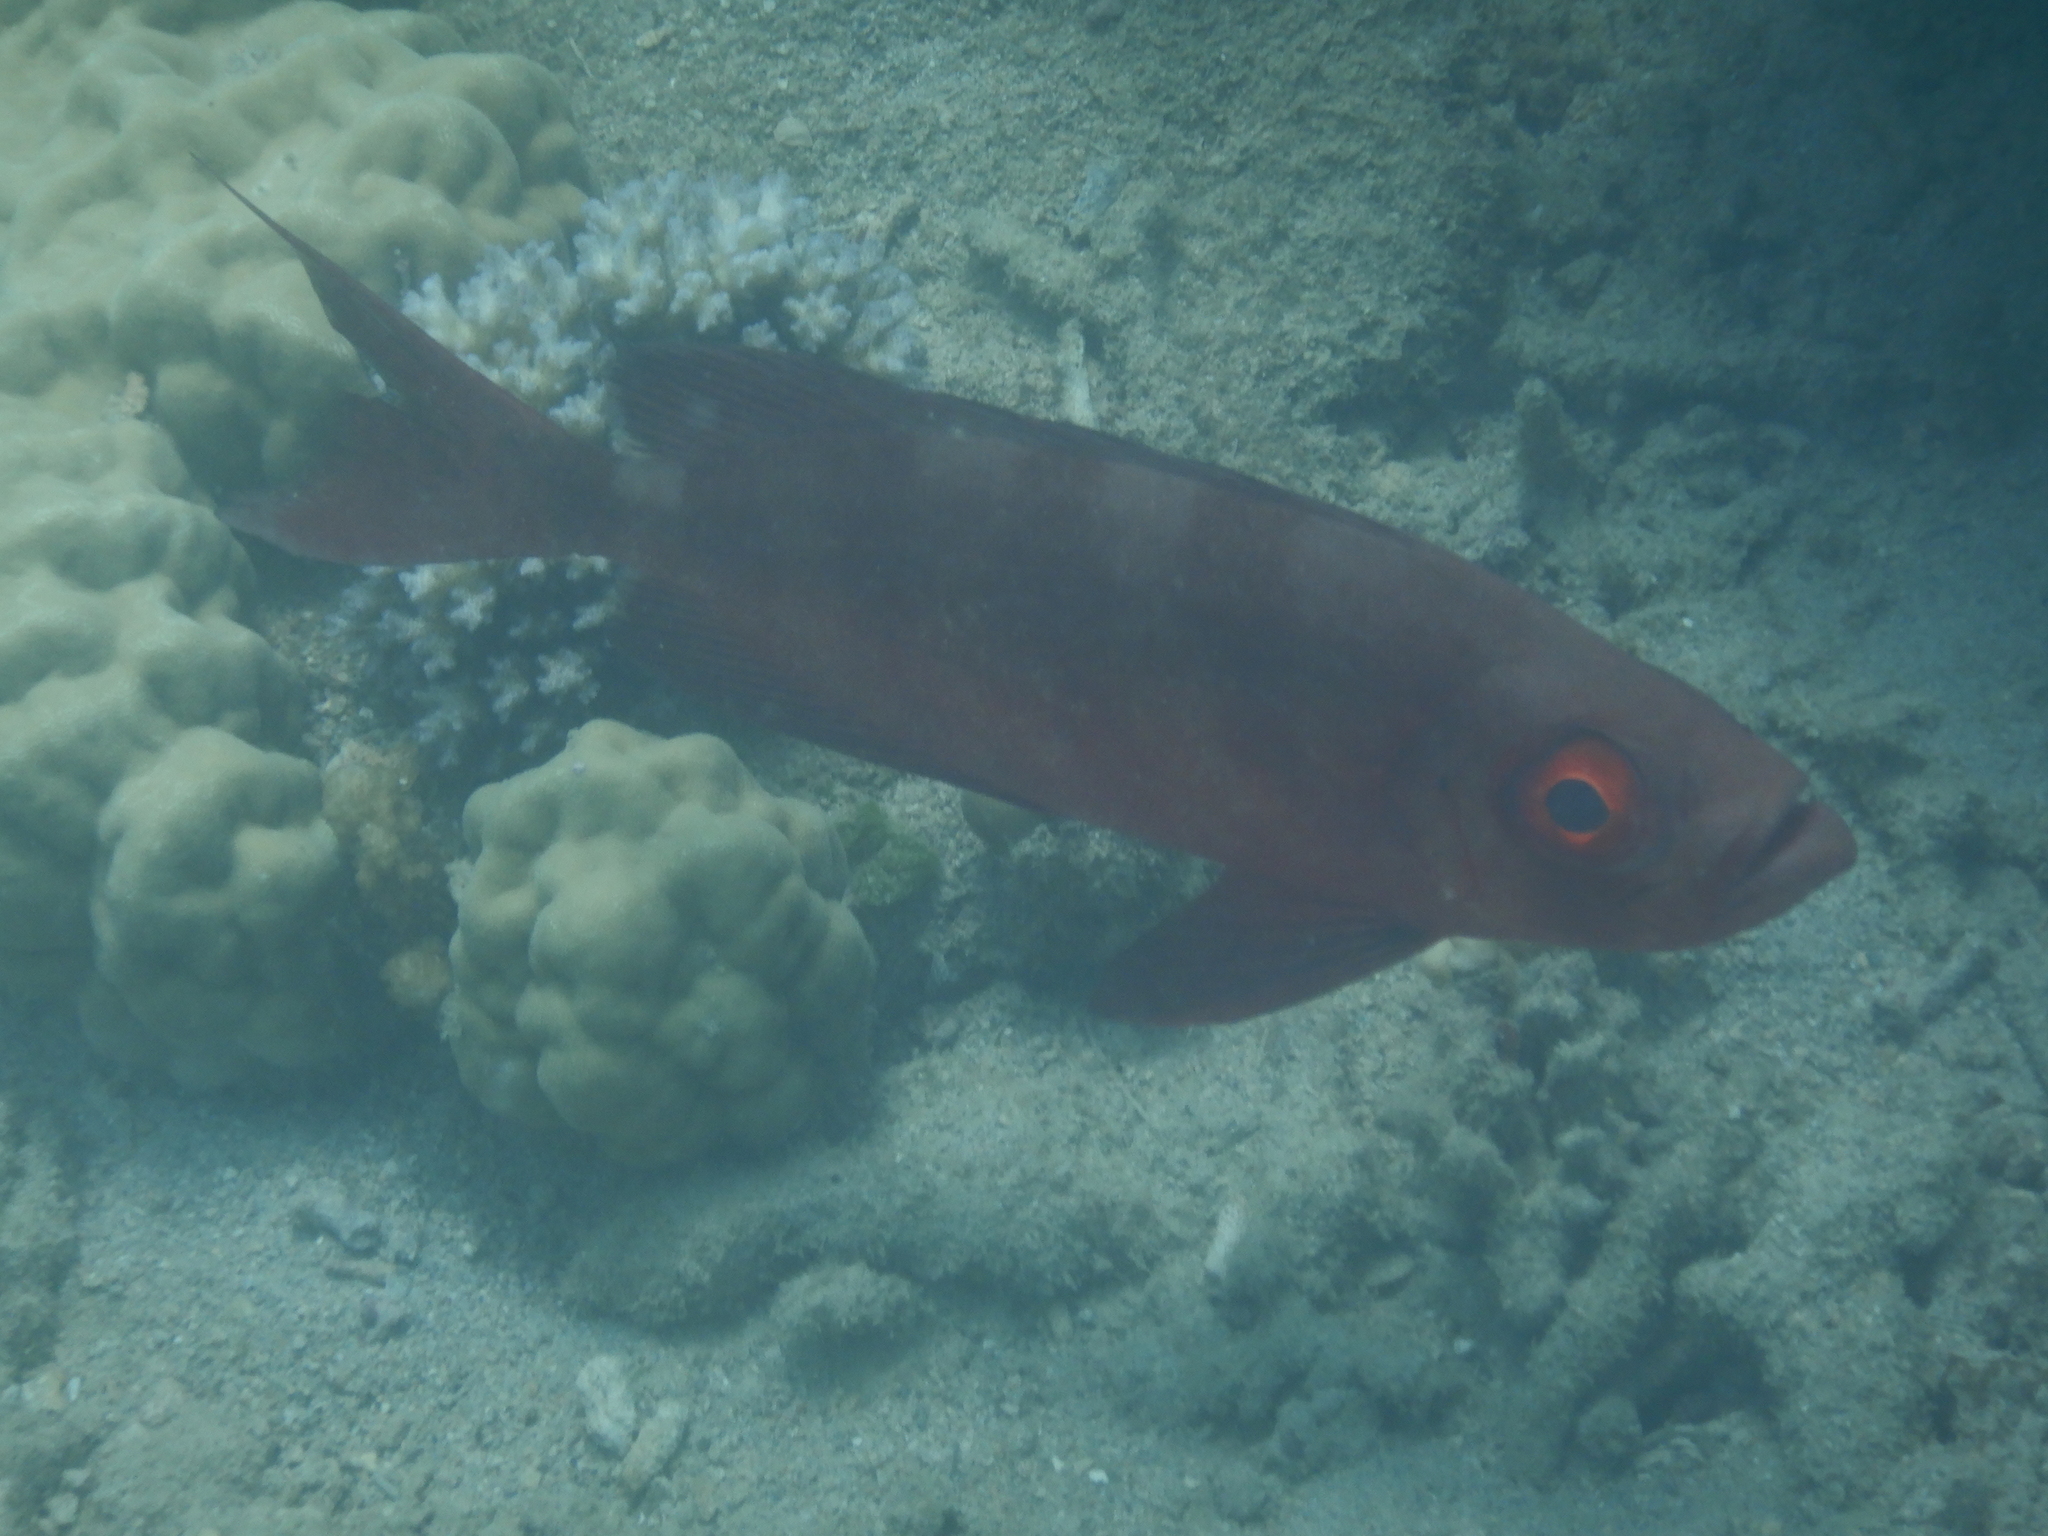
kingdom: Animalia
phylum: Chordata
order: Perciformes
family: Priacanthidae
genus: Priacanthus
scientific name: Priacanthus hamrur
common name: Moontail bullseye
